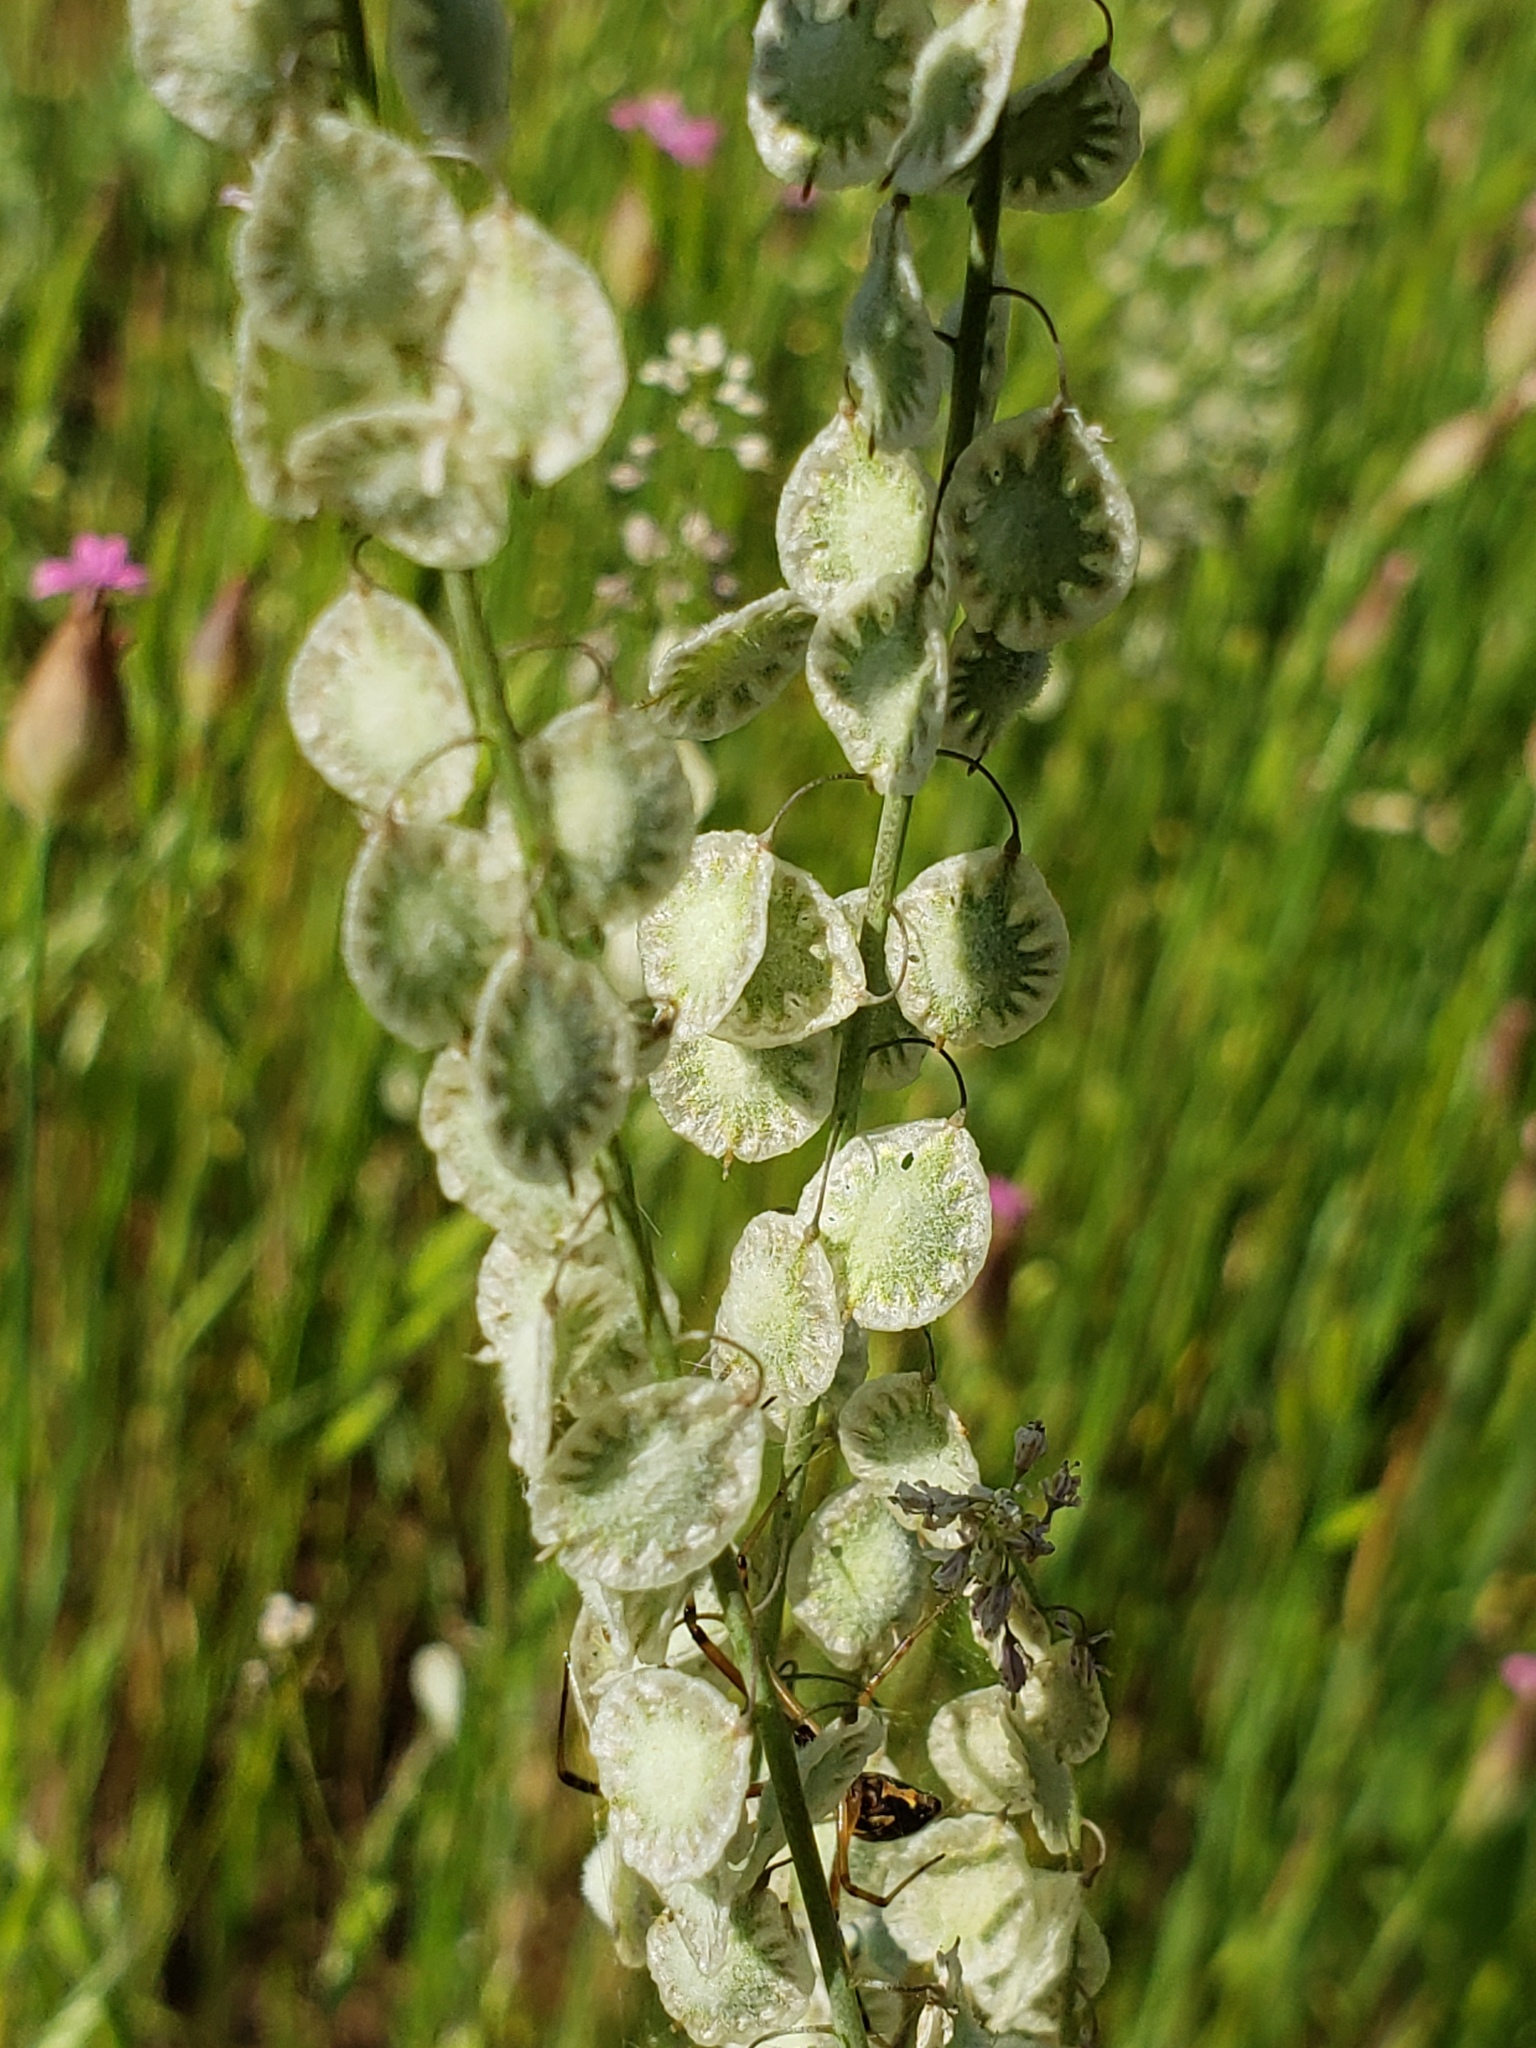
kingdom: Plantae
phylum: Tracheophyta
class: Magnoliopsida
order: Brassicales
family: Brassicaceae
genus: Thysanocarpus
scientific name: Thysanocarpus curvipes
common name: Sand fringepod
